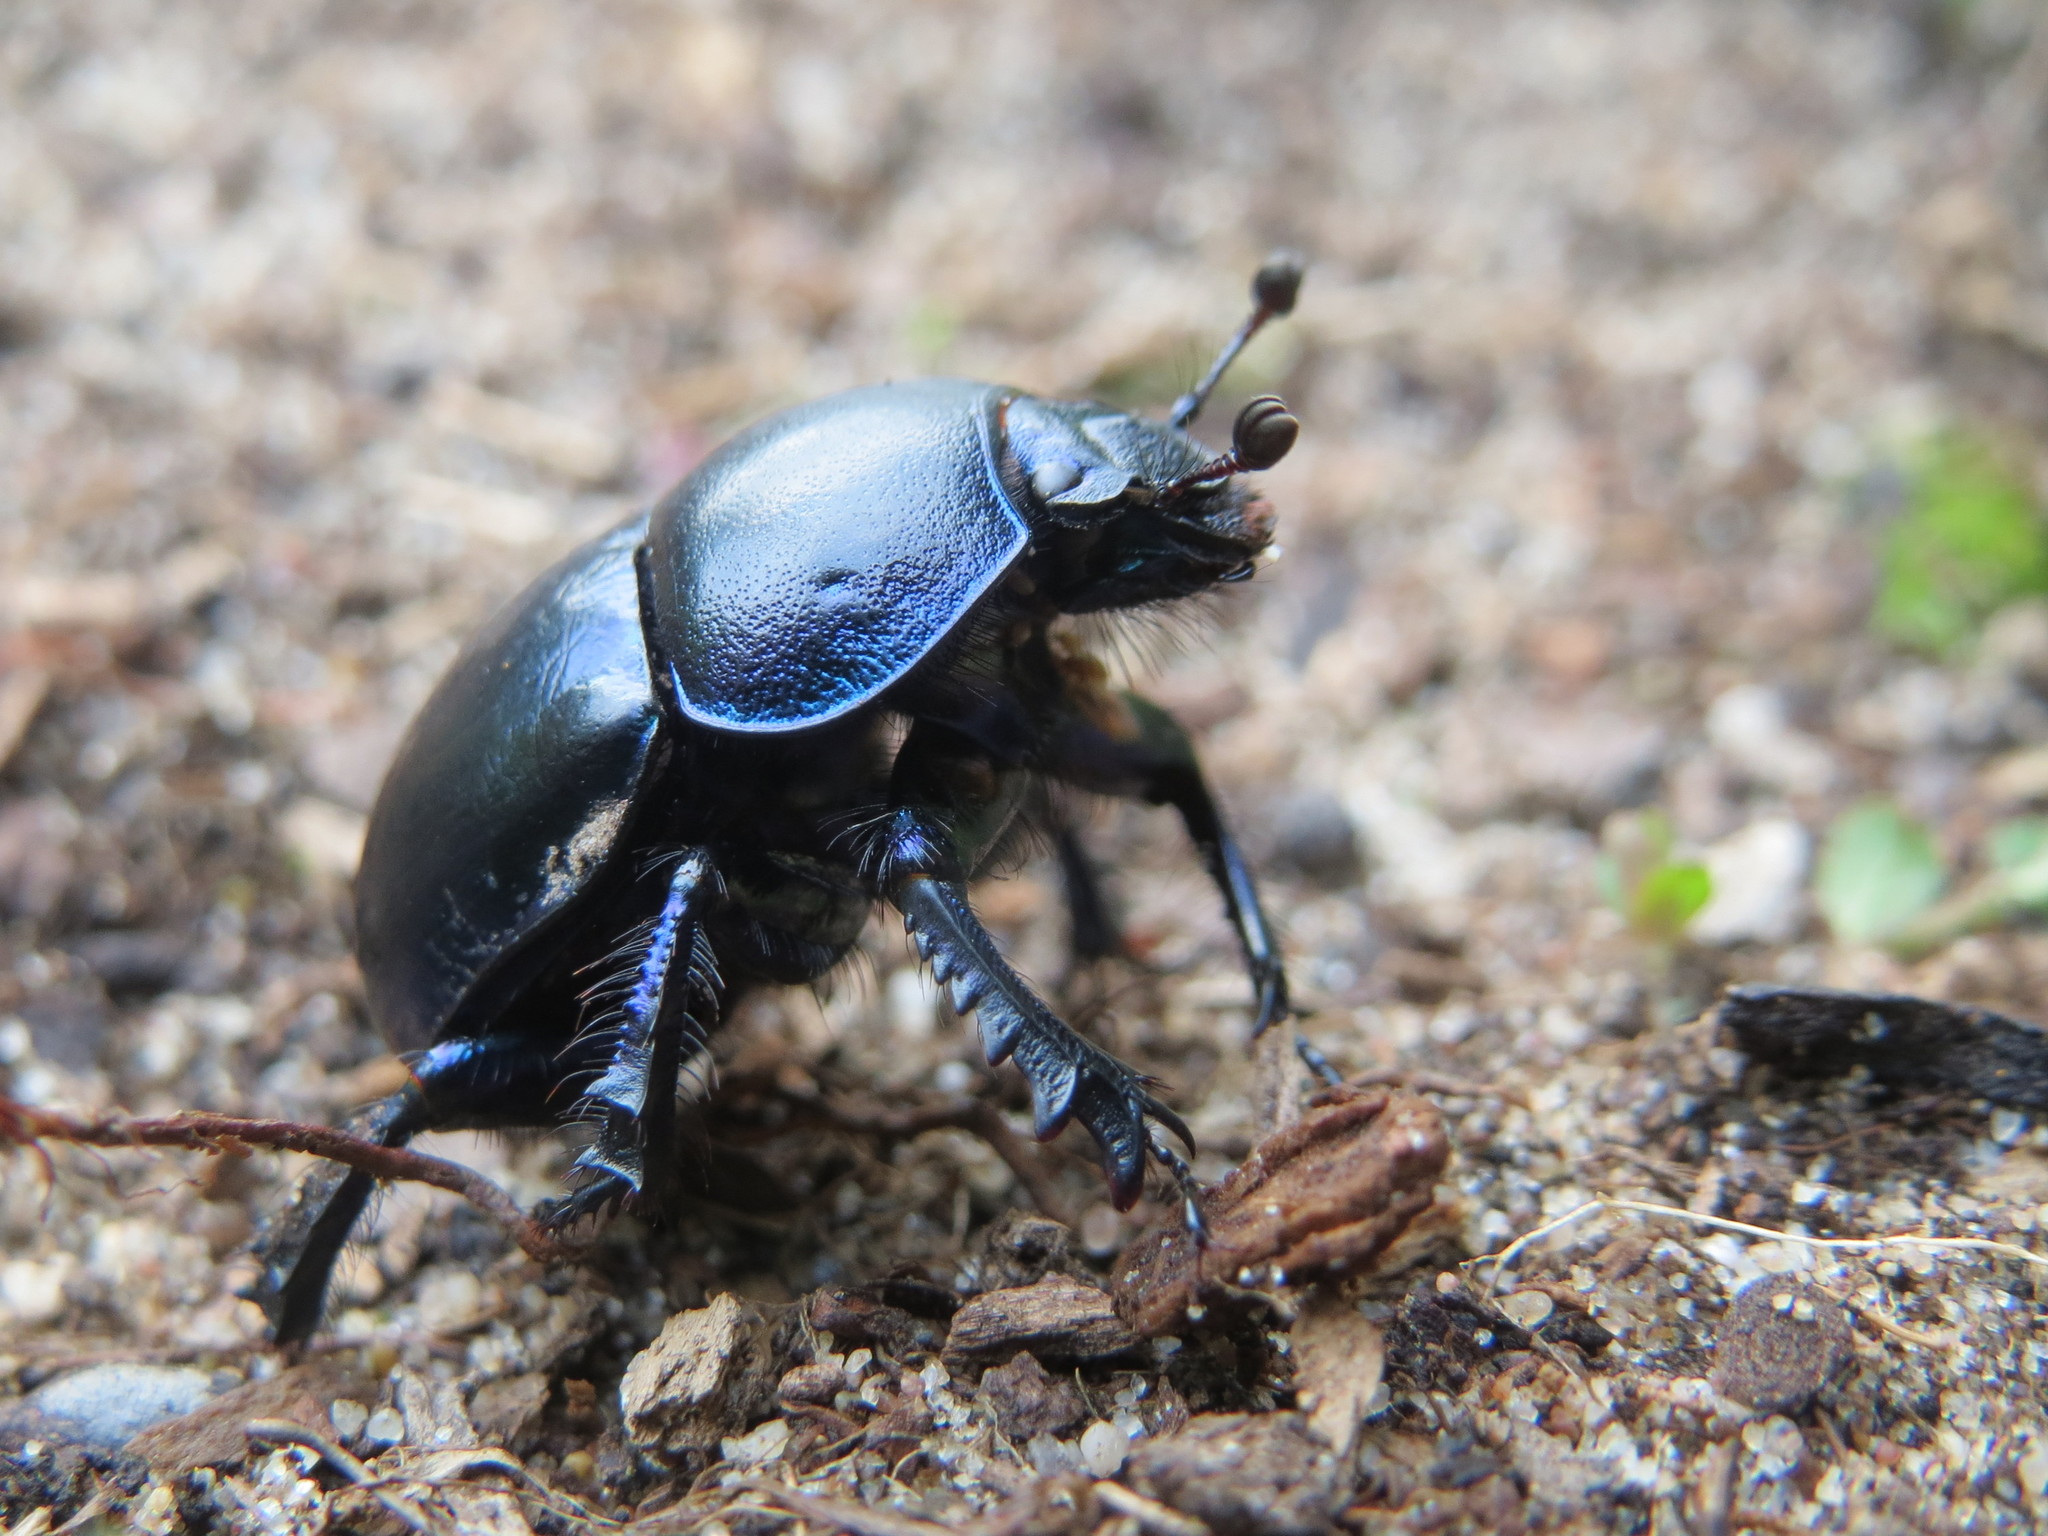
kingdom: Animalia
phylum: Arthropoda
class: Insecta
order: Coleoptera
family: Geotrupidae
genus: Trypocopris
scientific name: Trypocopris vernalis
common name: Spring dumbledor
